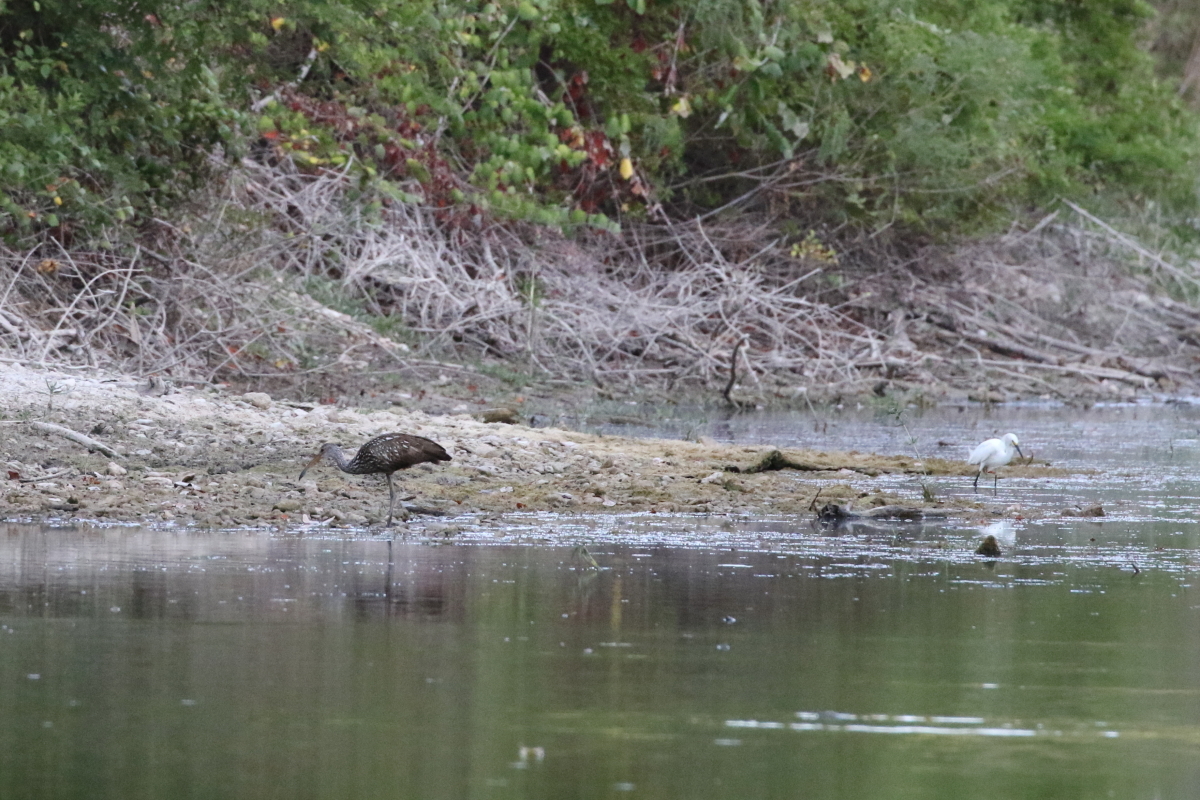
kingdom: Animalia
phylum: Chordata
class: Aves
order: Gruiformes
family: Aramidae
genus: Aramus
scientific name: Aramus guarauna
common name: Limpkin
